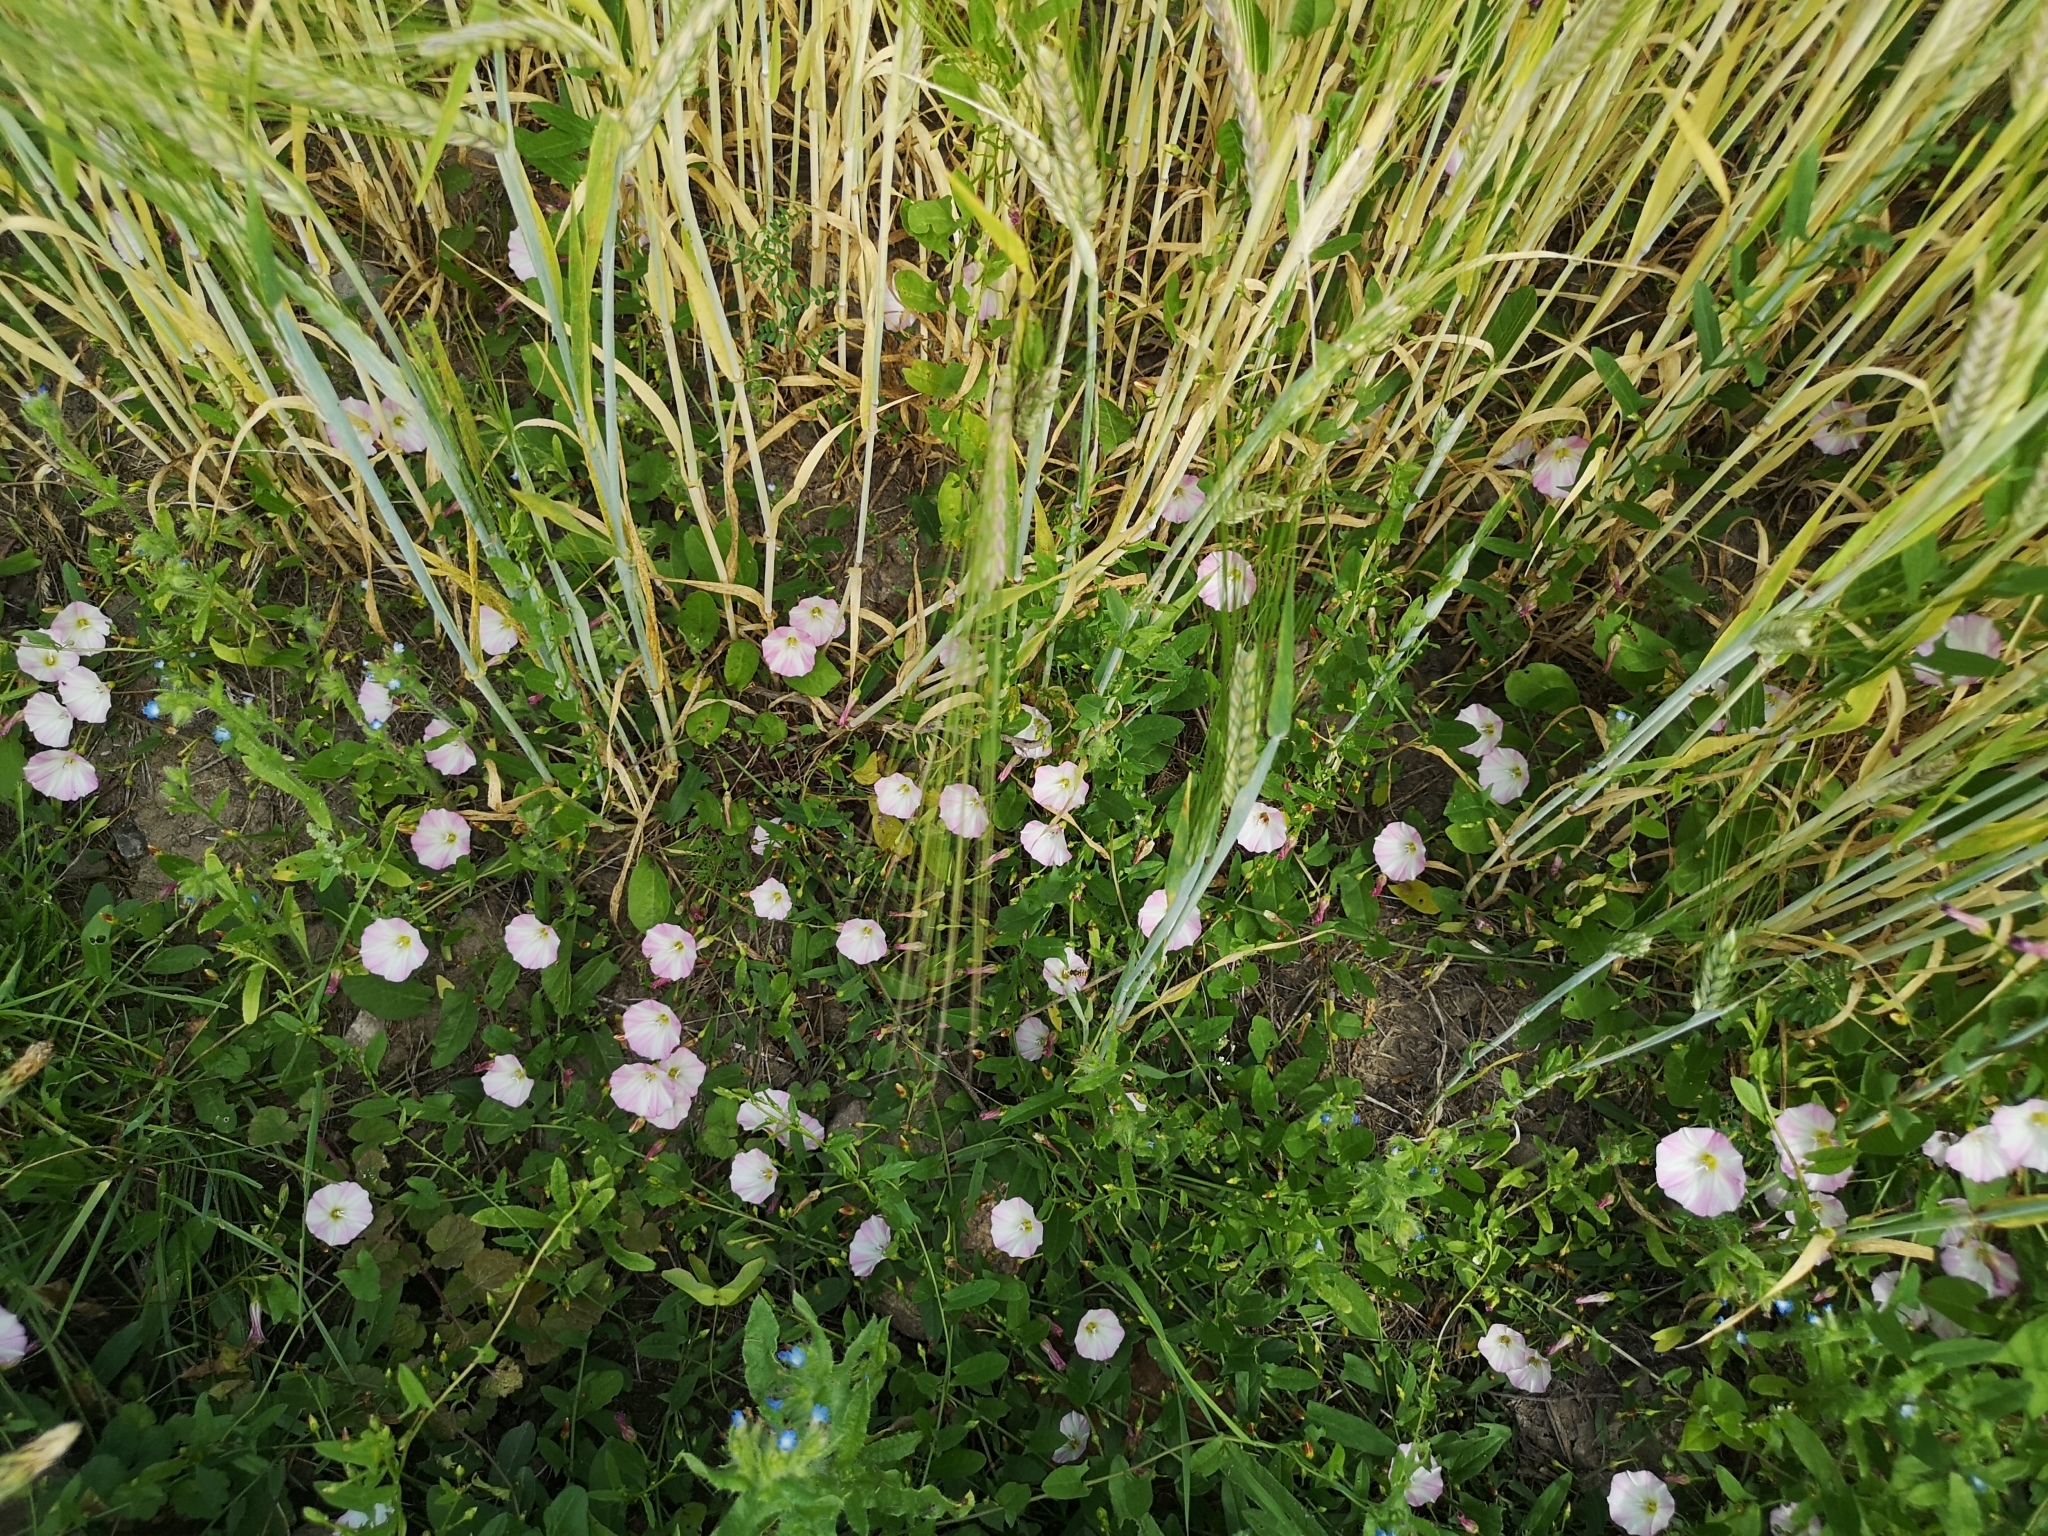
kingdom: Plantae
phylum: Tracheophyta
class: Magnoliopsida
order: Solanales
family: Convolvulaceae
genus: Convolvulus
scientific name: Convolvulus arvensis
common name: Field bindweed
